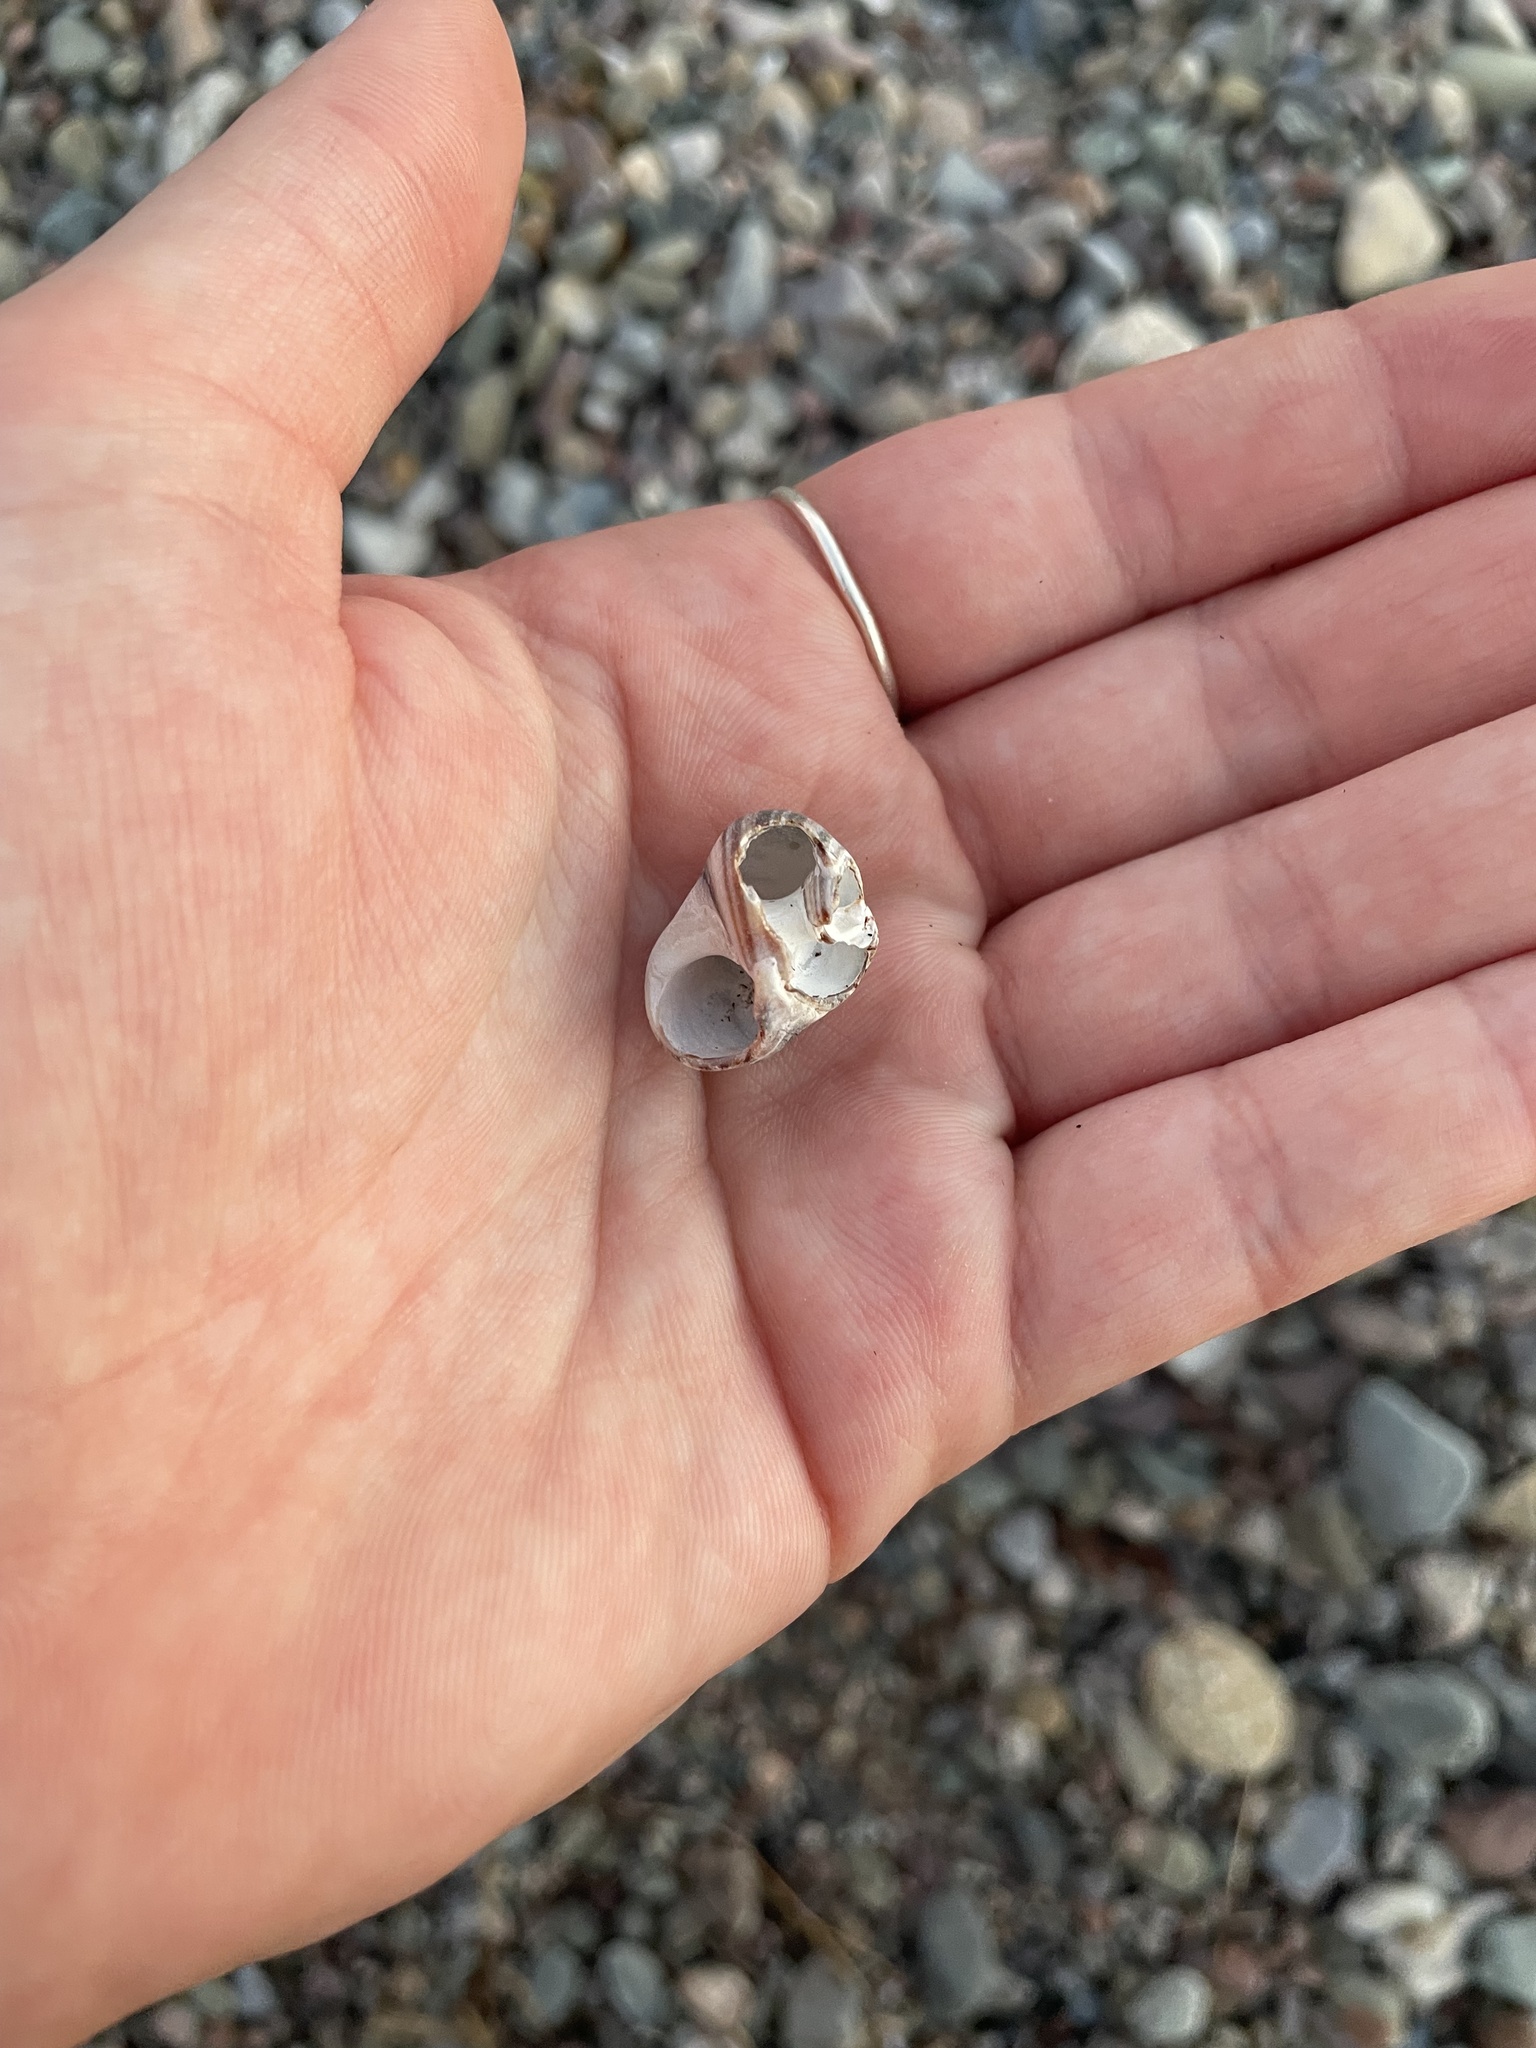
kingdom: Animalia
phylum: Mollusca
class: Gastropoda
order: Littorinimorpha
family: Littorinidae
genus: Littorina
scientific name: Littorina littorea
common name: Common periwinkle
